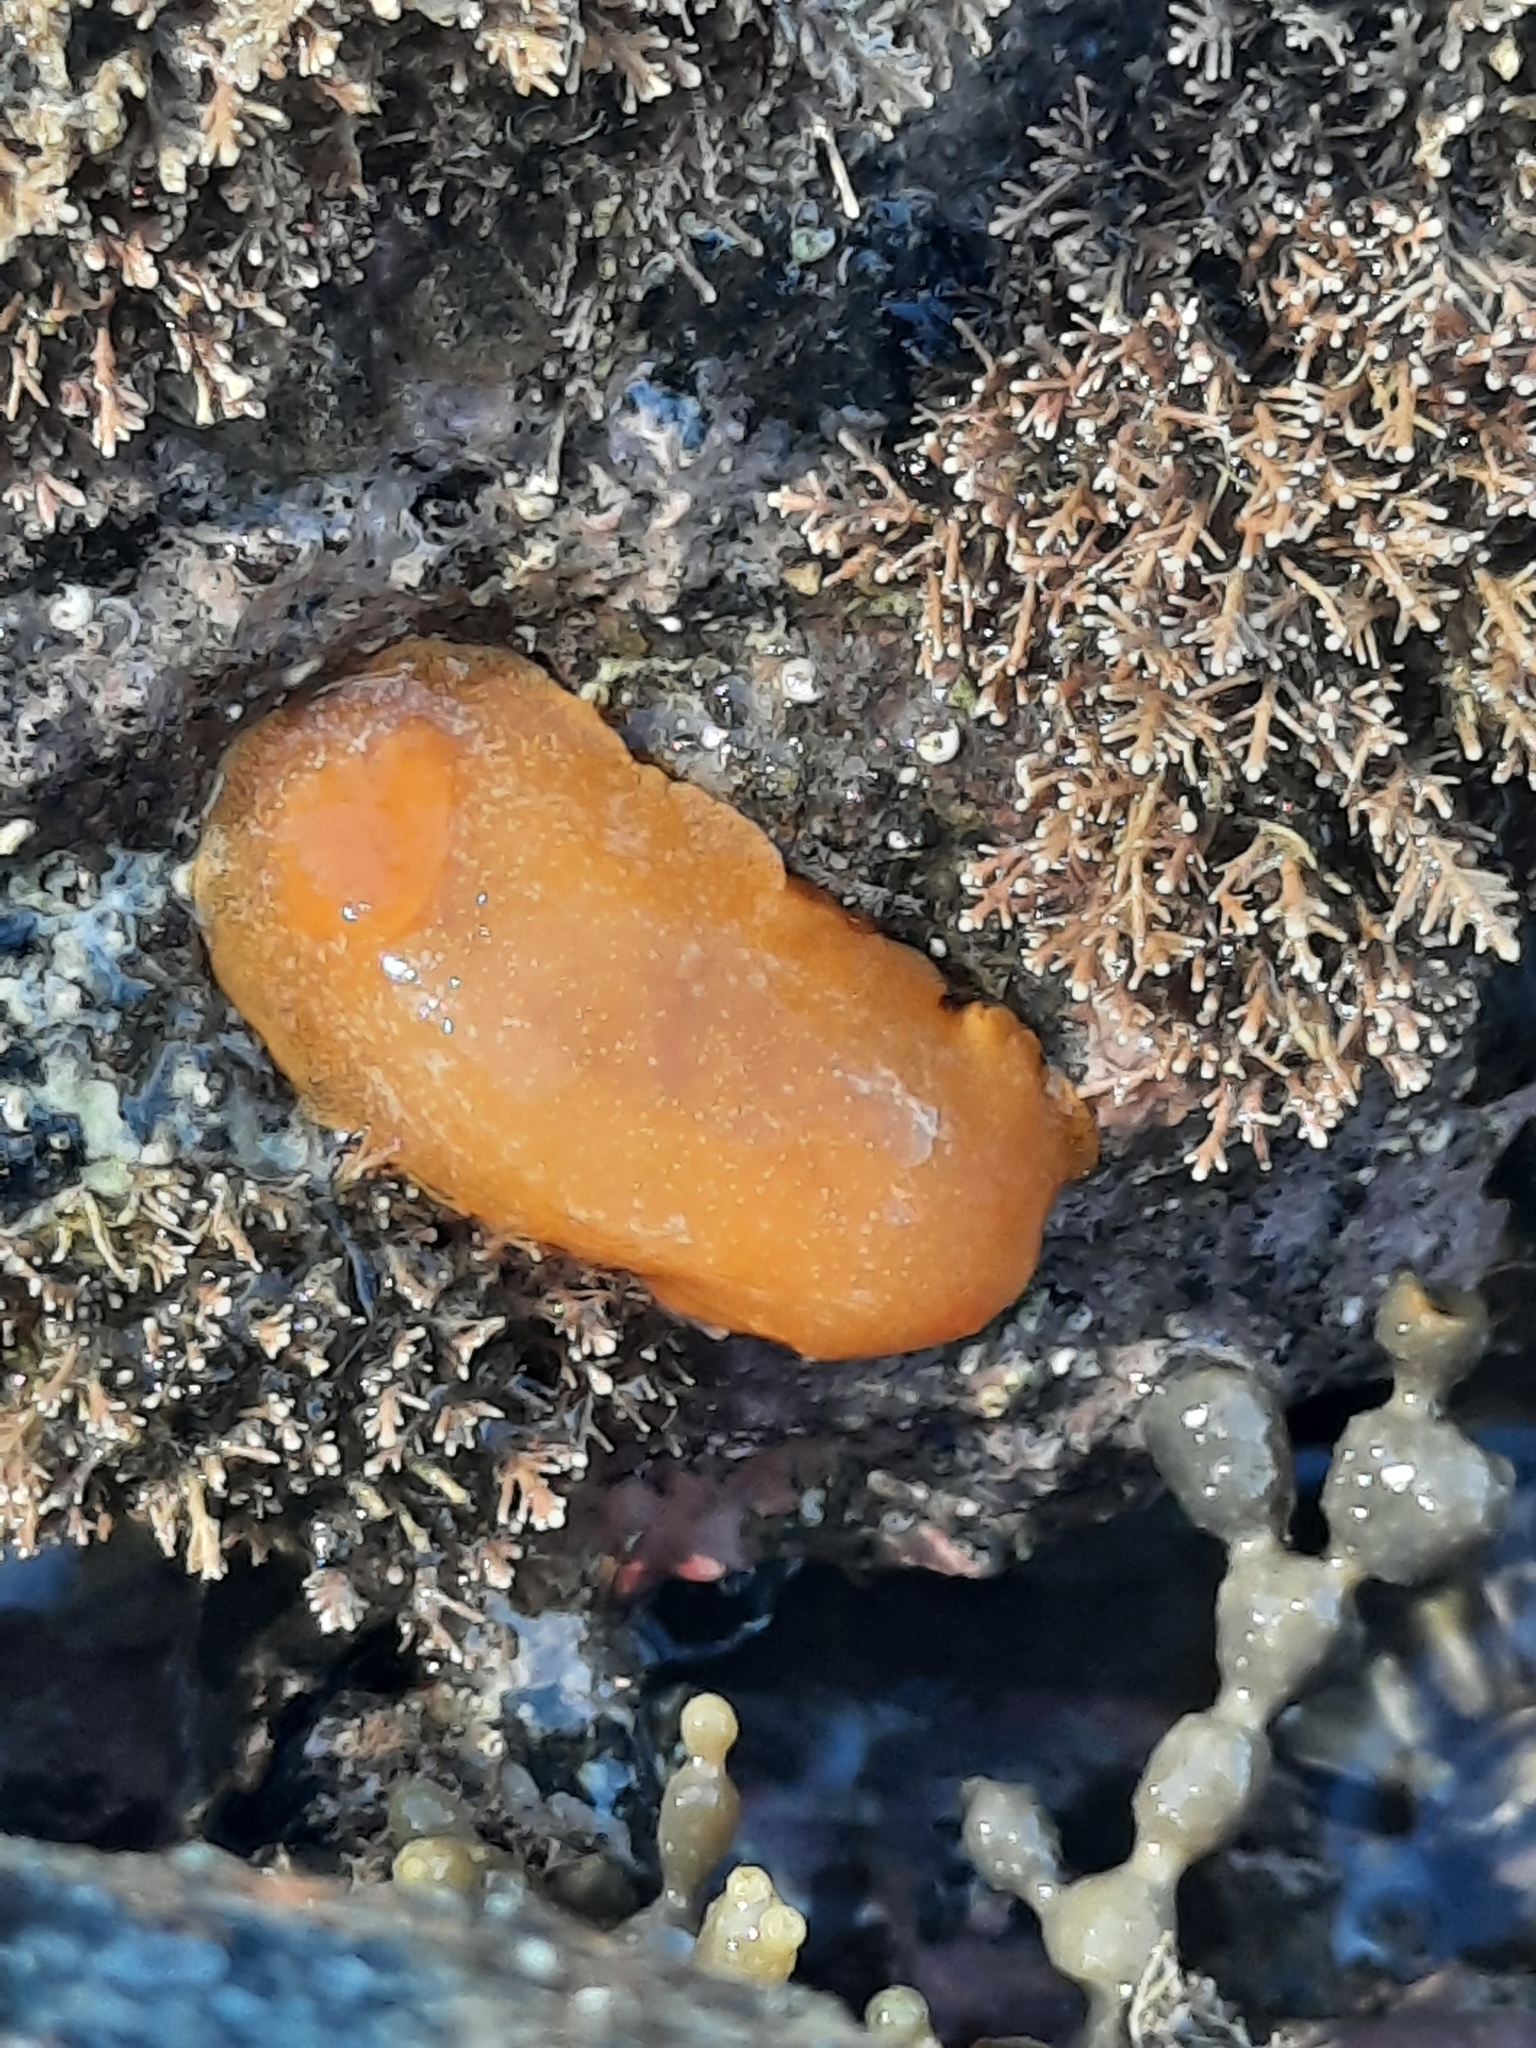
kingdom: Animalia
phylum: Mollusca
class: Gastropoda
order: Nudibranchia
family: Dendrodorididae
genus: Dendrodoris
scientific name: Dendrodoris citrina
